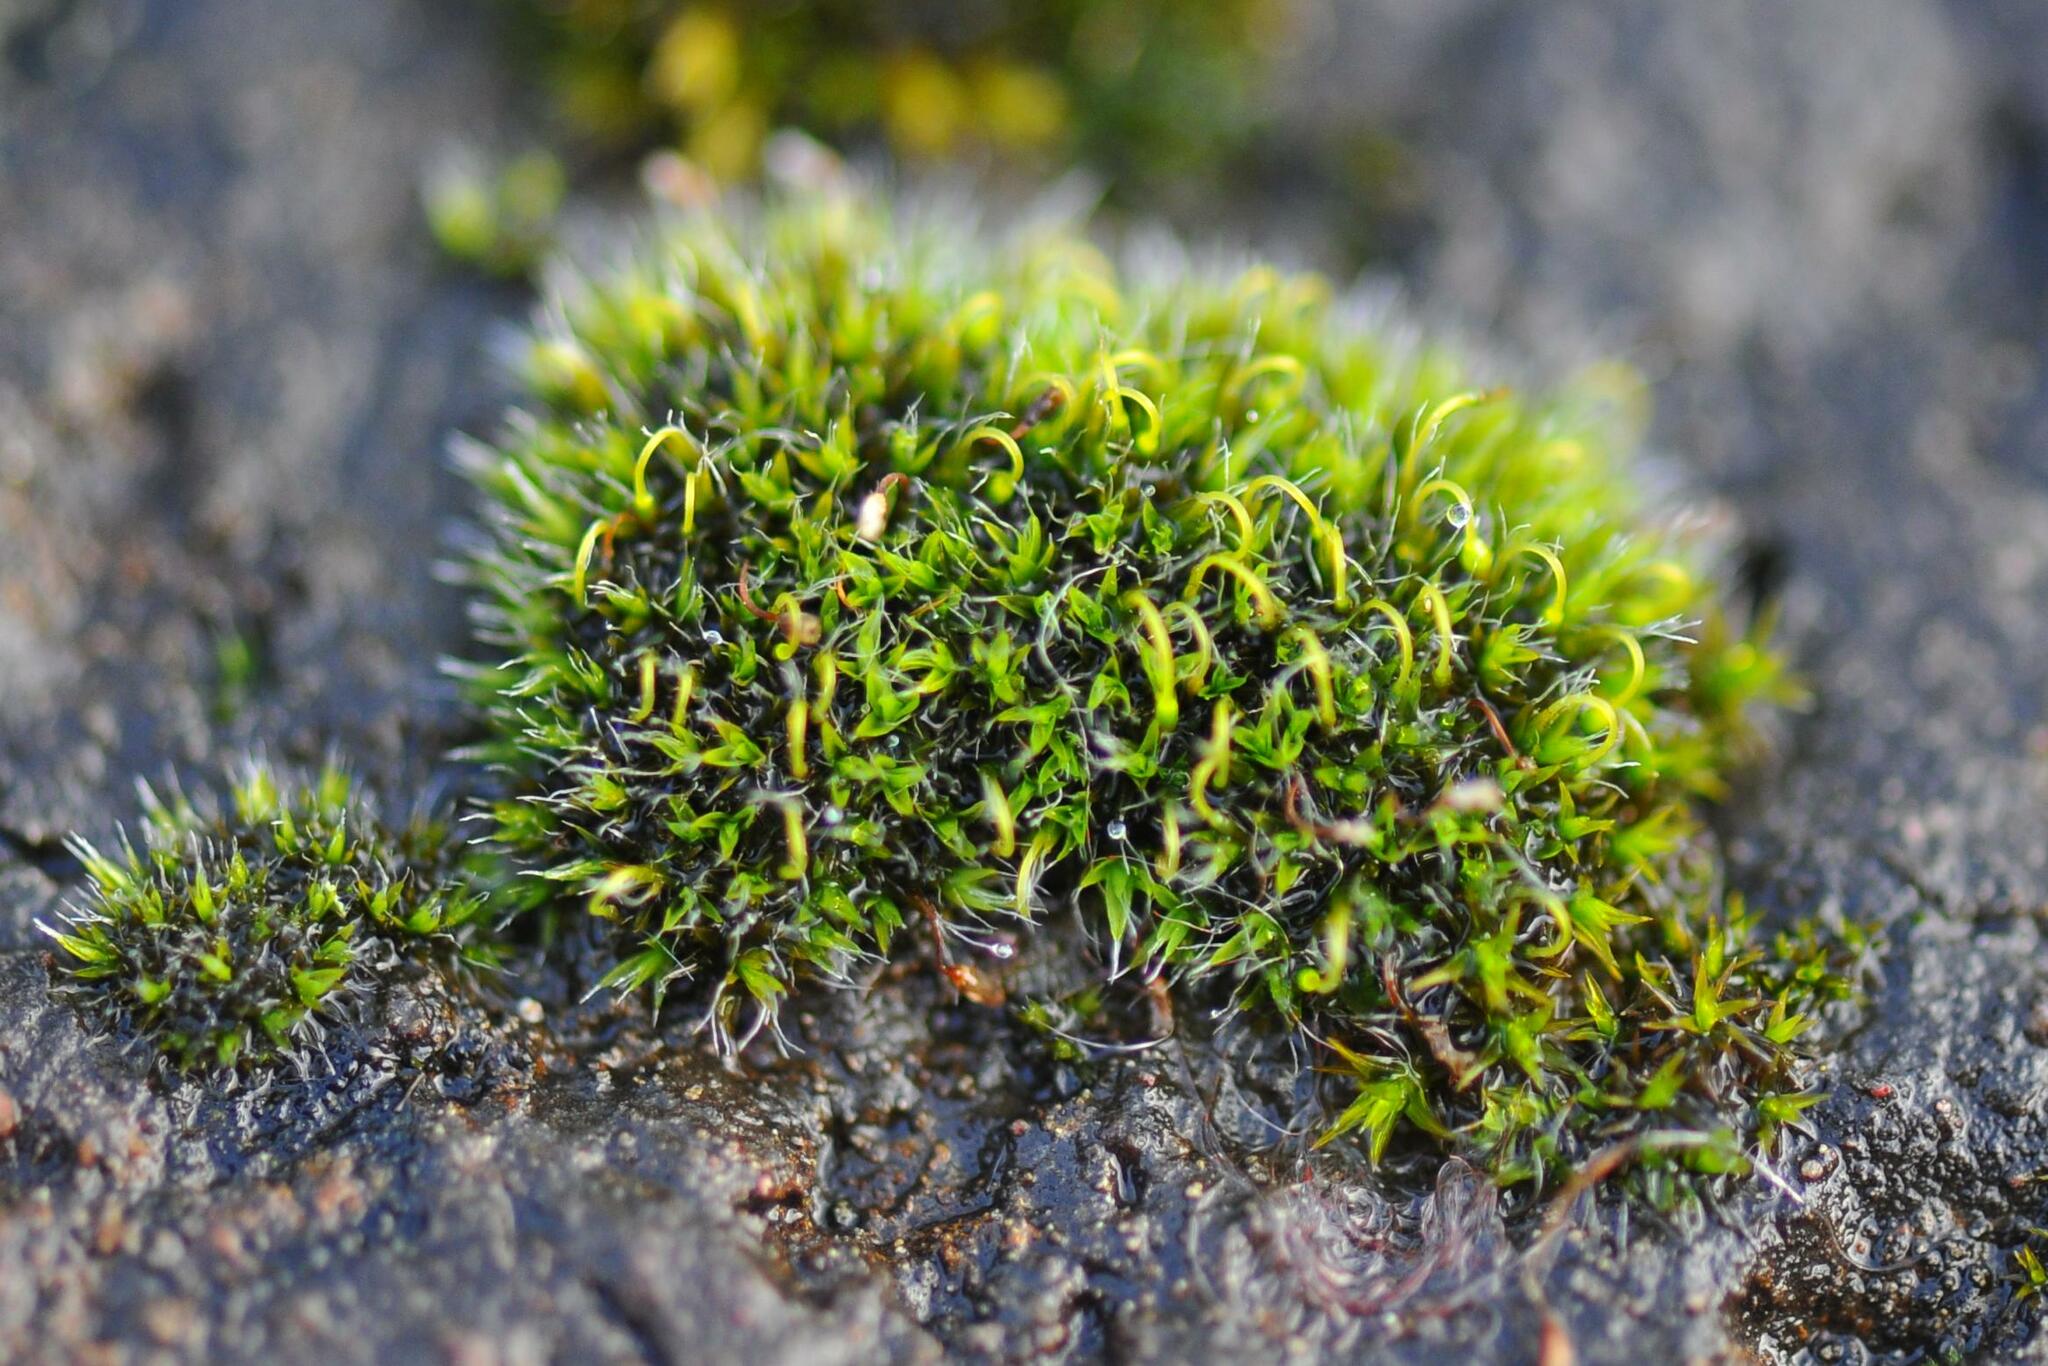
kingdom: Plantae
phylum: Bryophyta
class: Bryopsida
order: Grimmiales
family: Grimmiaceae
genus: Grimmia
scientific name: Grimmia pulvinata
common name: Grey-cushioned grimmia
